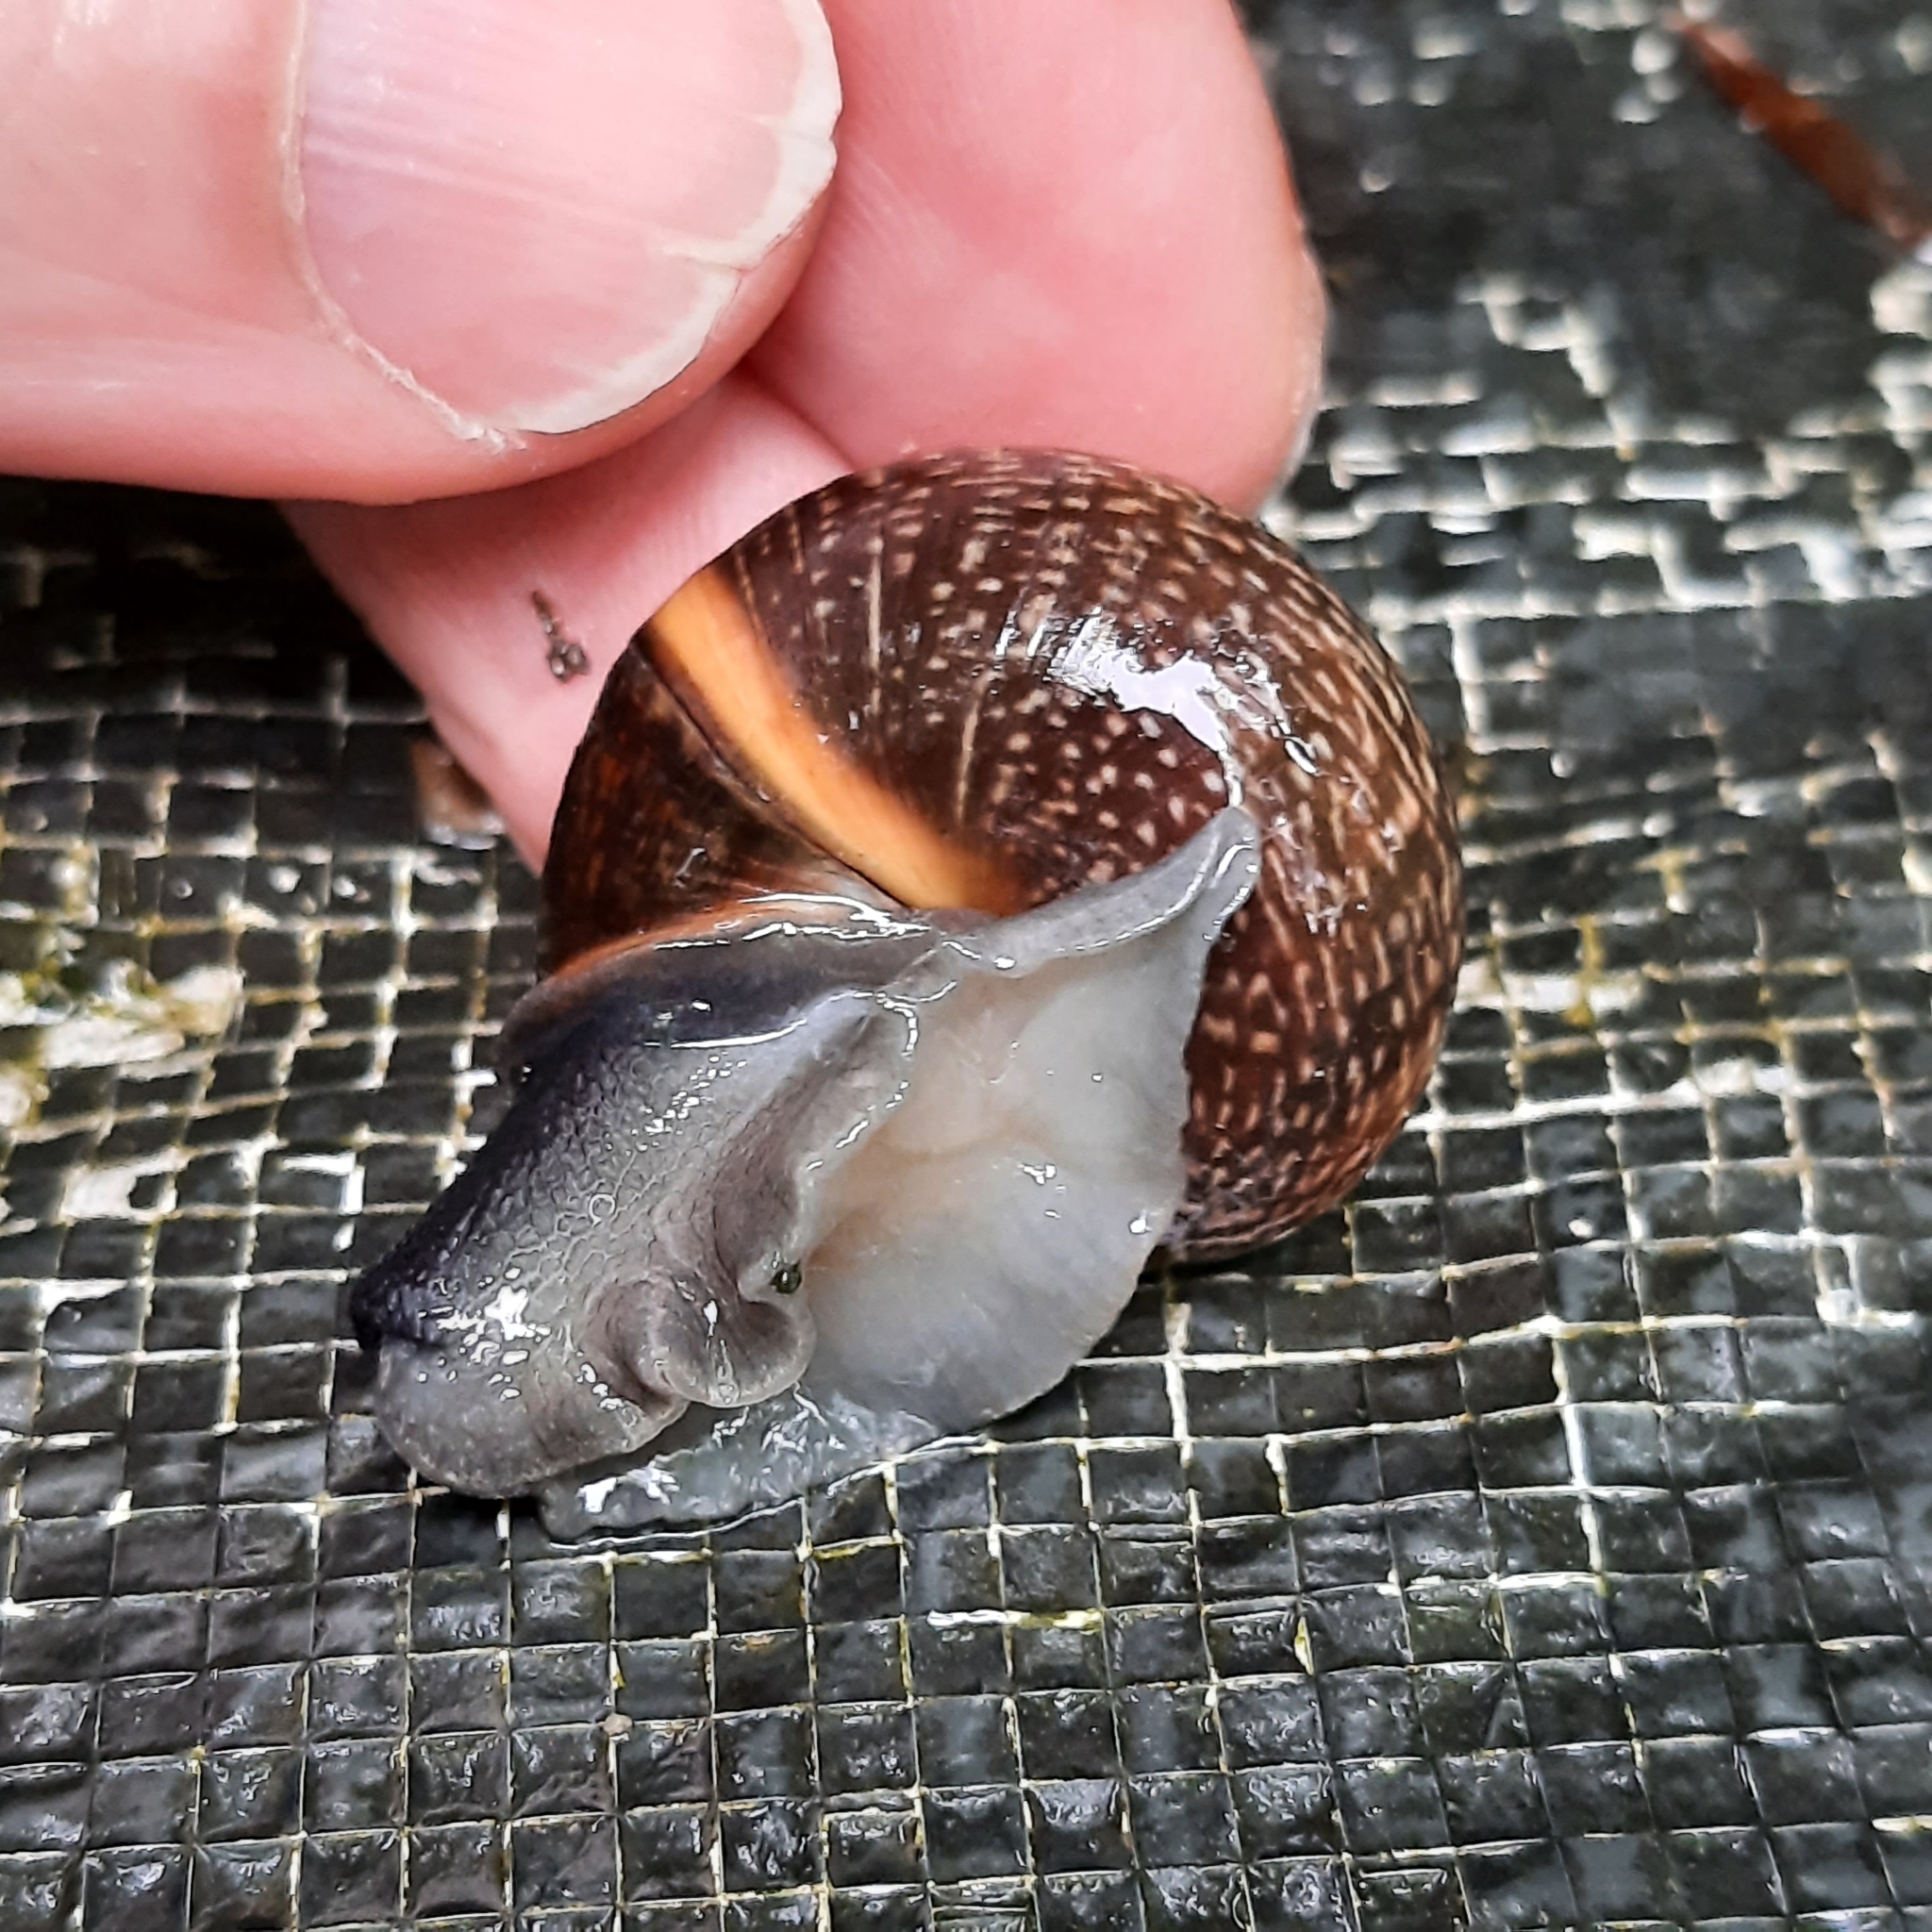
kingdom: Animalia
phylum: Mollusca
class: Gastropoda
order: Stylommatophora
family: Helicidae
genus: Arianta
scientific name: Arianta arbustorum
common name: Copse snail
